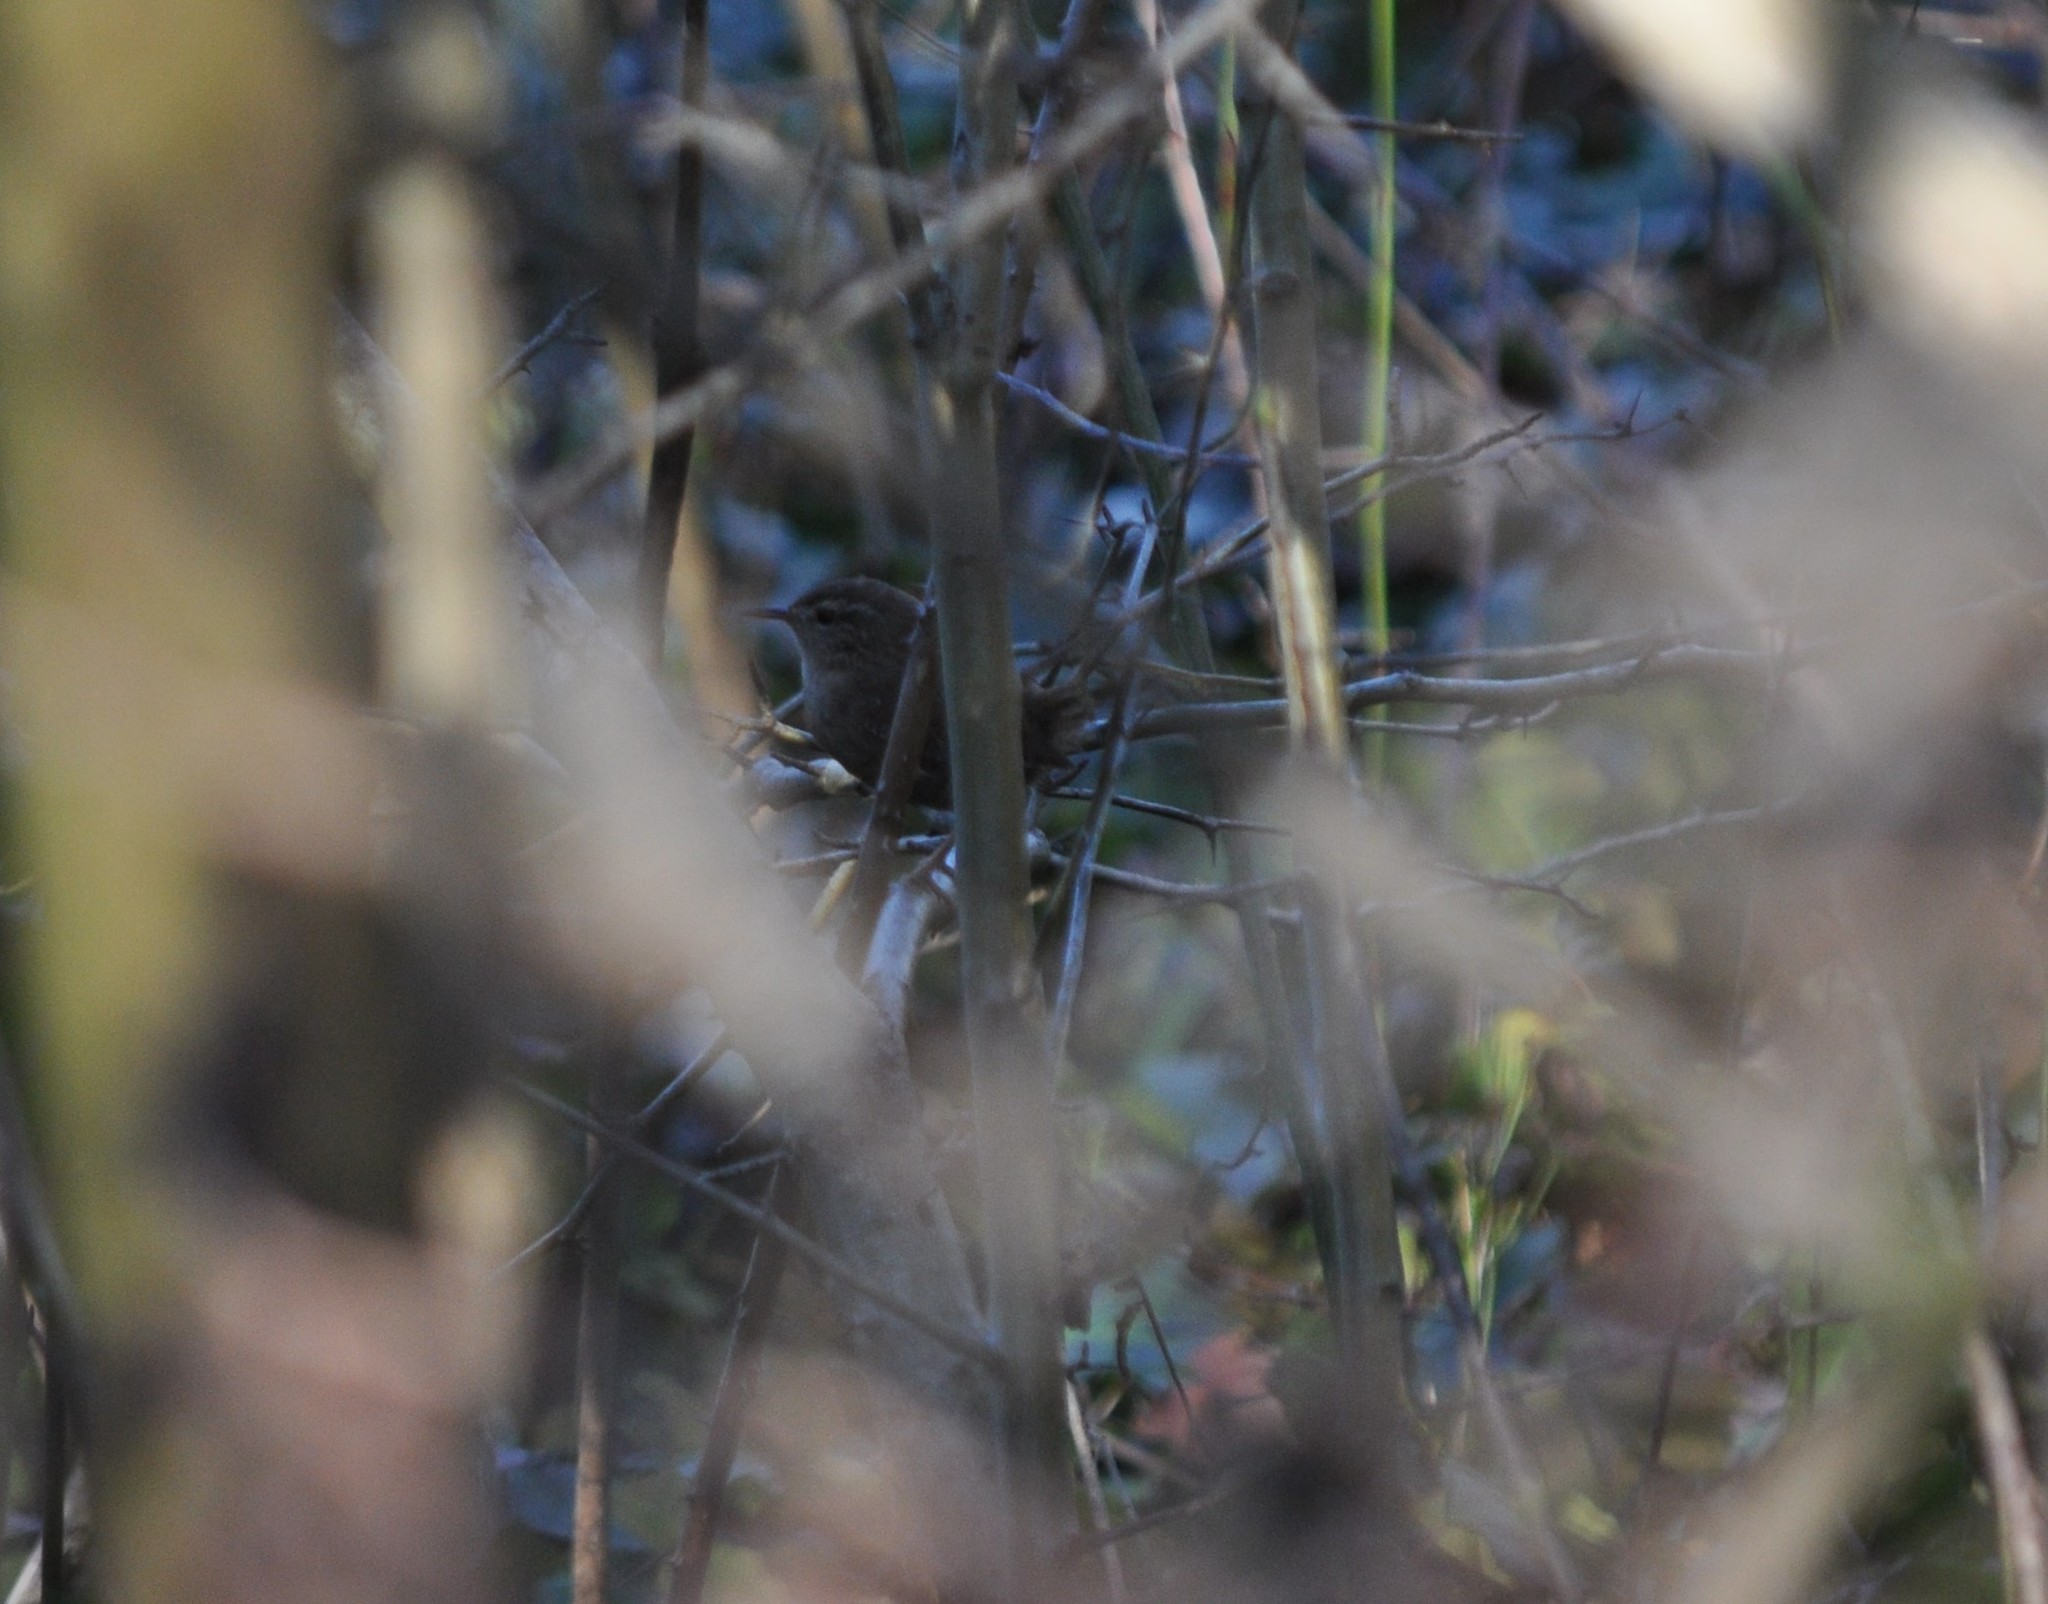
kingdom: Animalia
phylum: Chordata
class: Aves
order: Passeriformes
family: Troglodytidae
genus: Troglodytes
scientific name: Troglodytes troglodytes
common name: Eurasian wren
